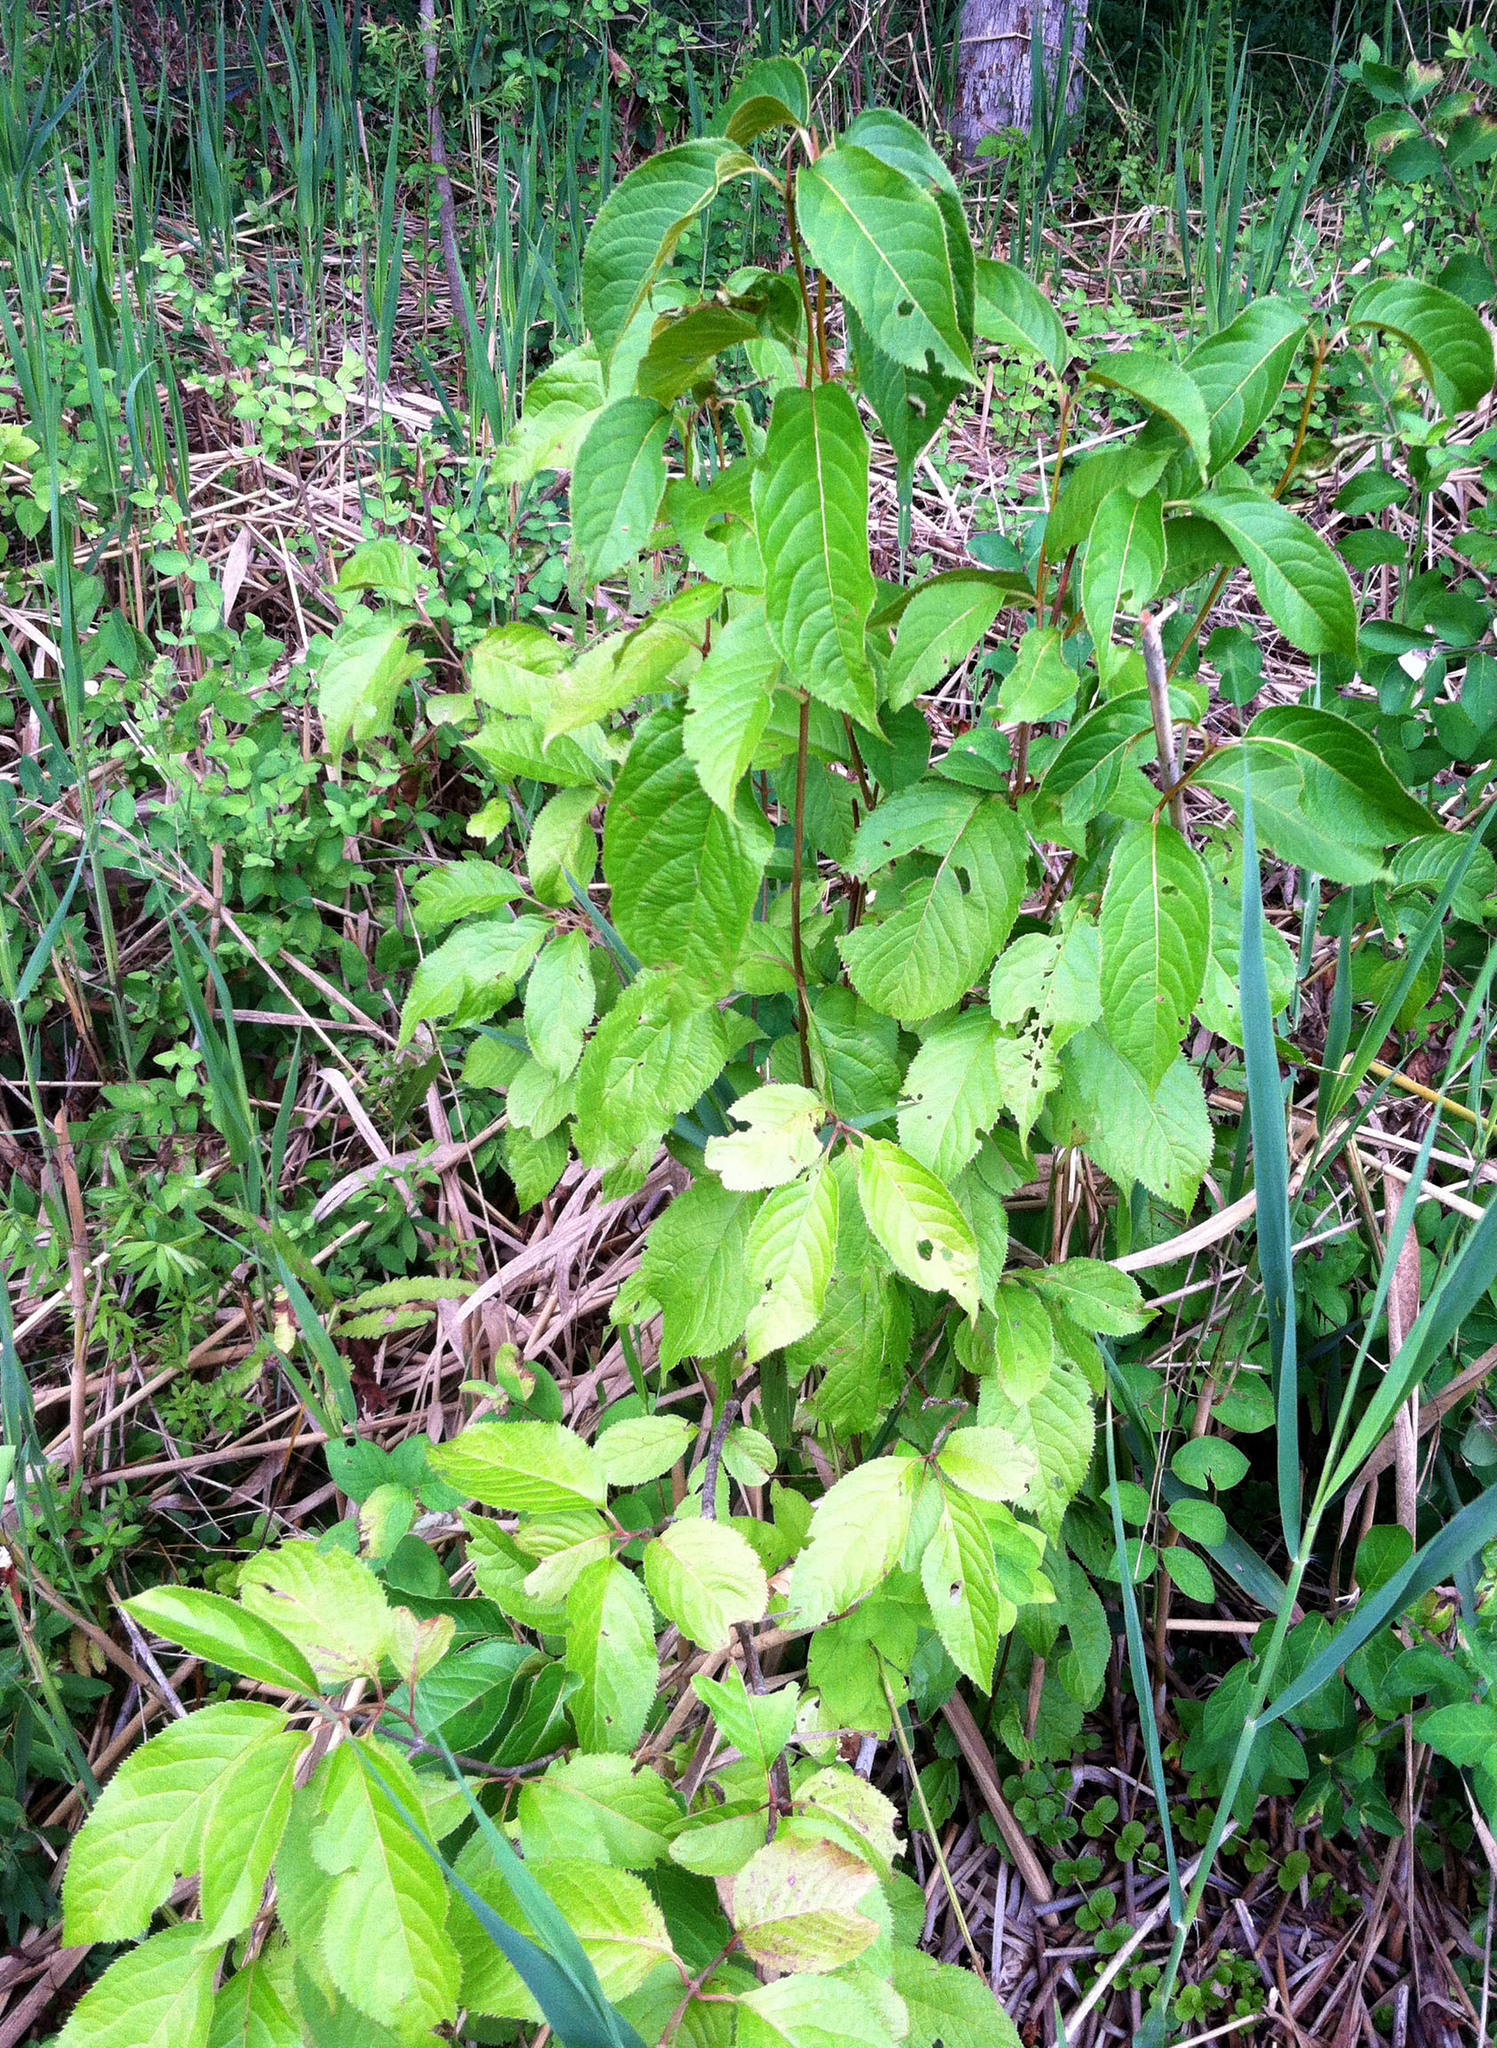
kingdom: Plantae
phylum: Tracheophyta
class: Magnoliopsida
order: Gentianales
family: Rubiaceae
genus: Cephalanthus
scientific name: Cephalanthus occidentalis
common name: Button-willow
